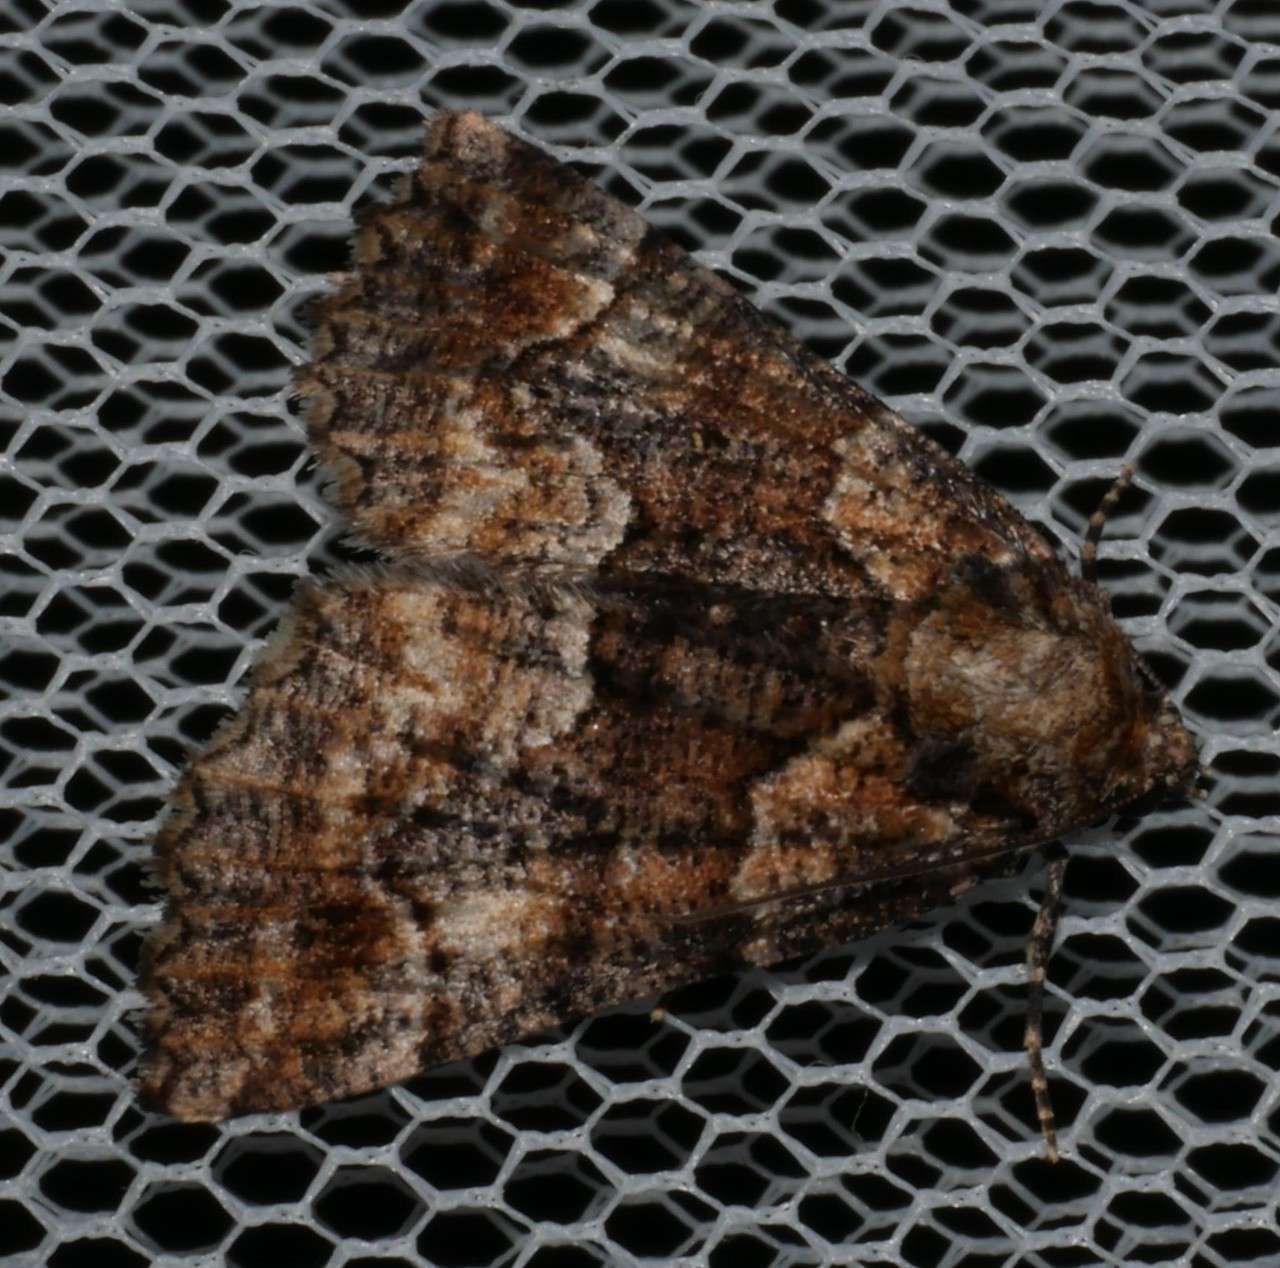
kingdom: Animalia
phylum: Arthropoda
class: Insecta
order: Lepidoptera
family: Geometridae
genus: Gastrina
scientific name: Gastrina cristaria
